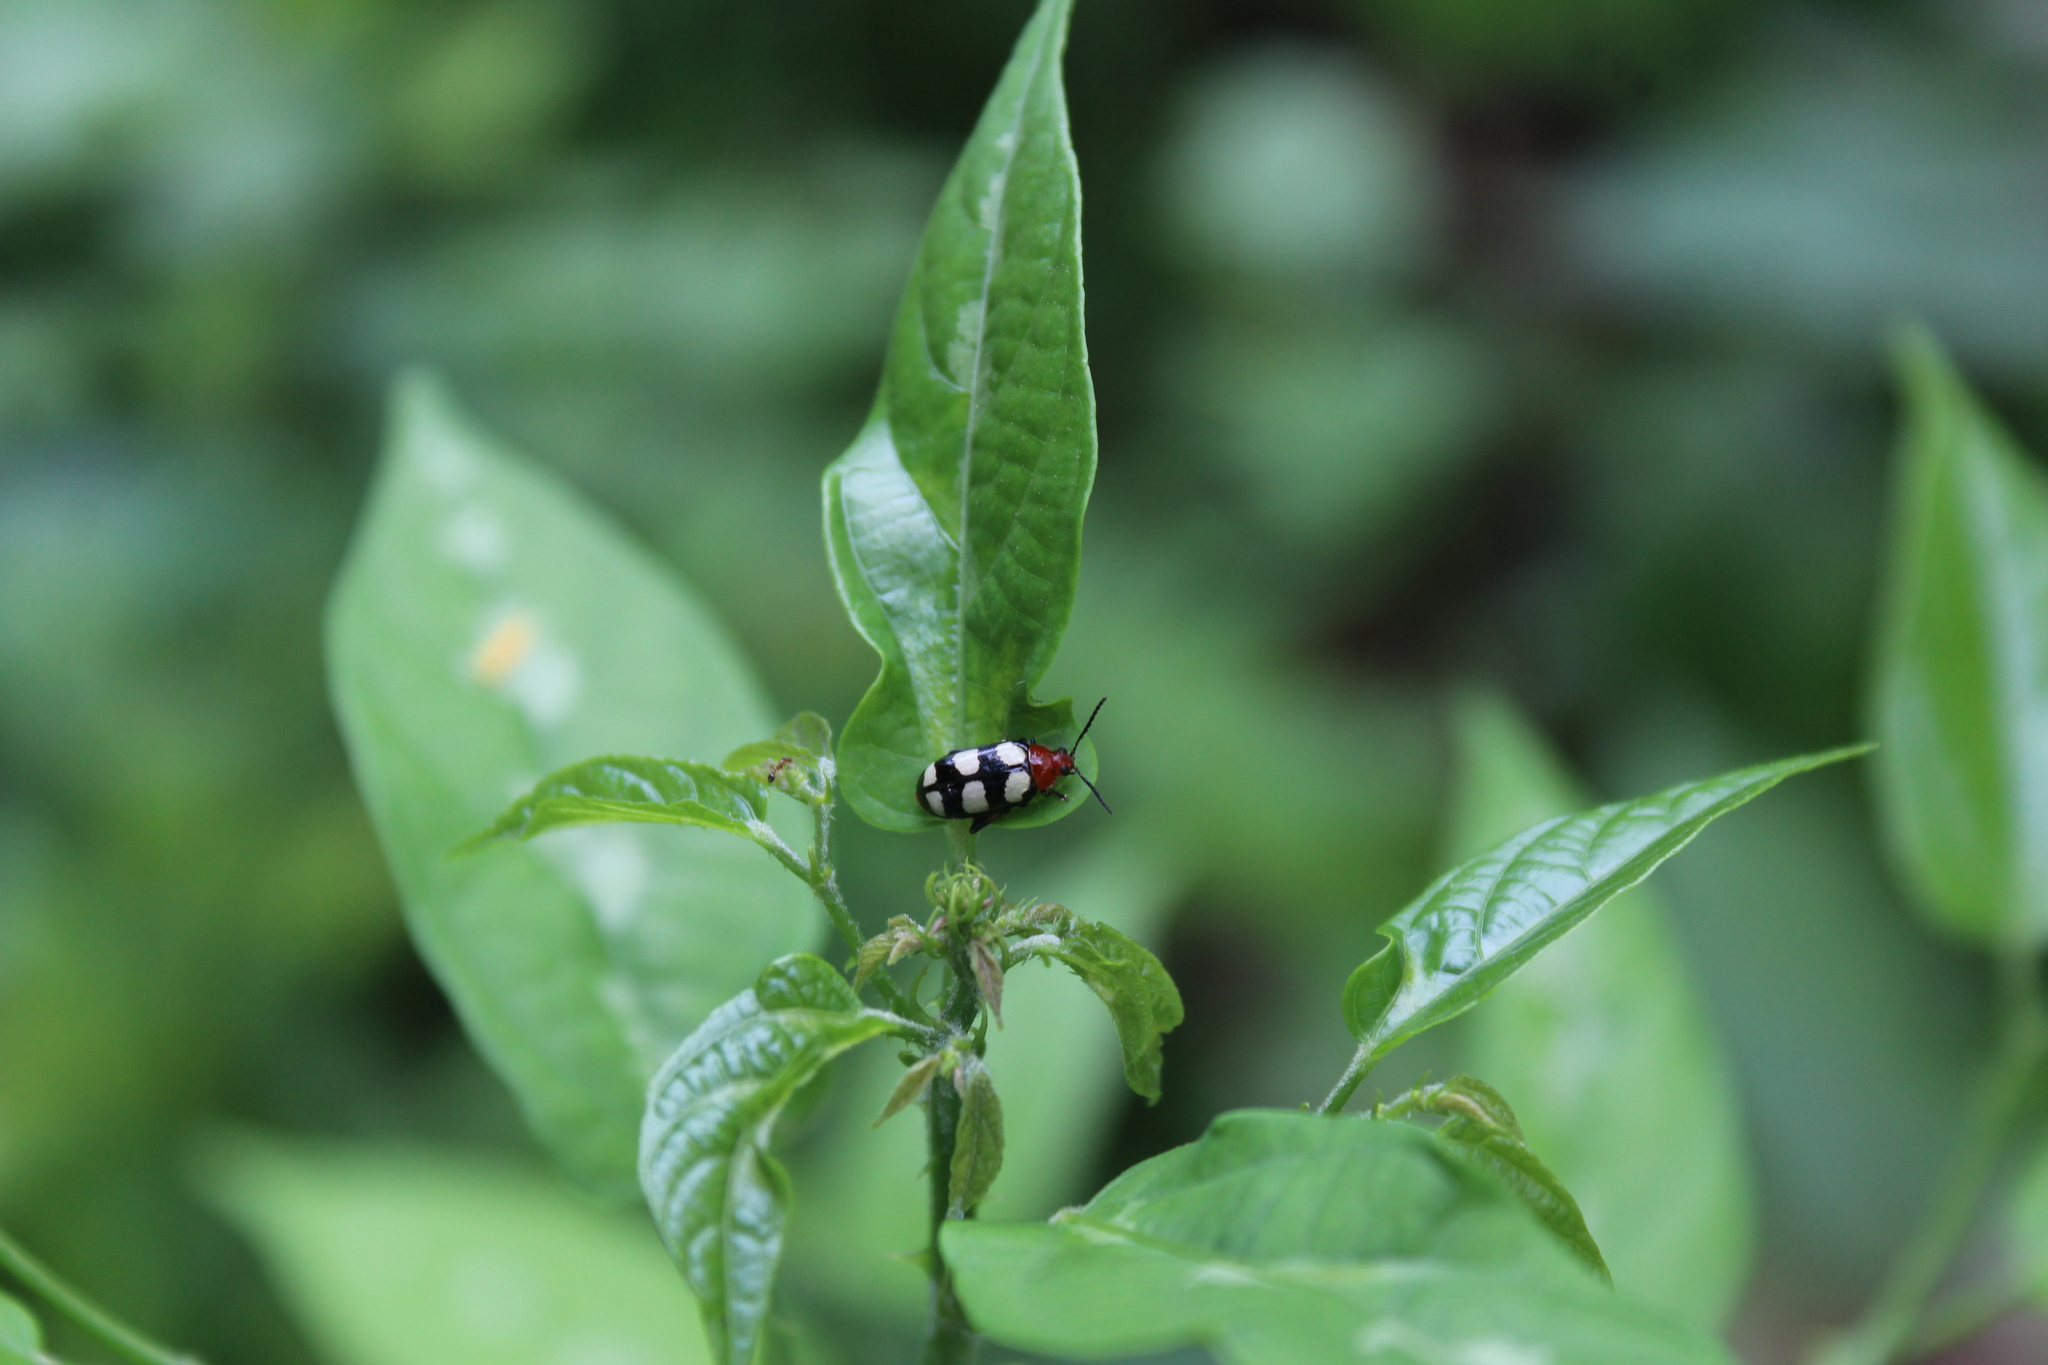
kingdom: Animalia
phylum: Arthropoda
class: Insecta
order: Coleoptera
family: Chrysomelidae
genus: Disonycha
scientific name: Disonycha
